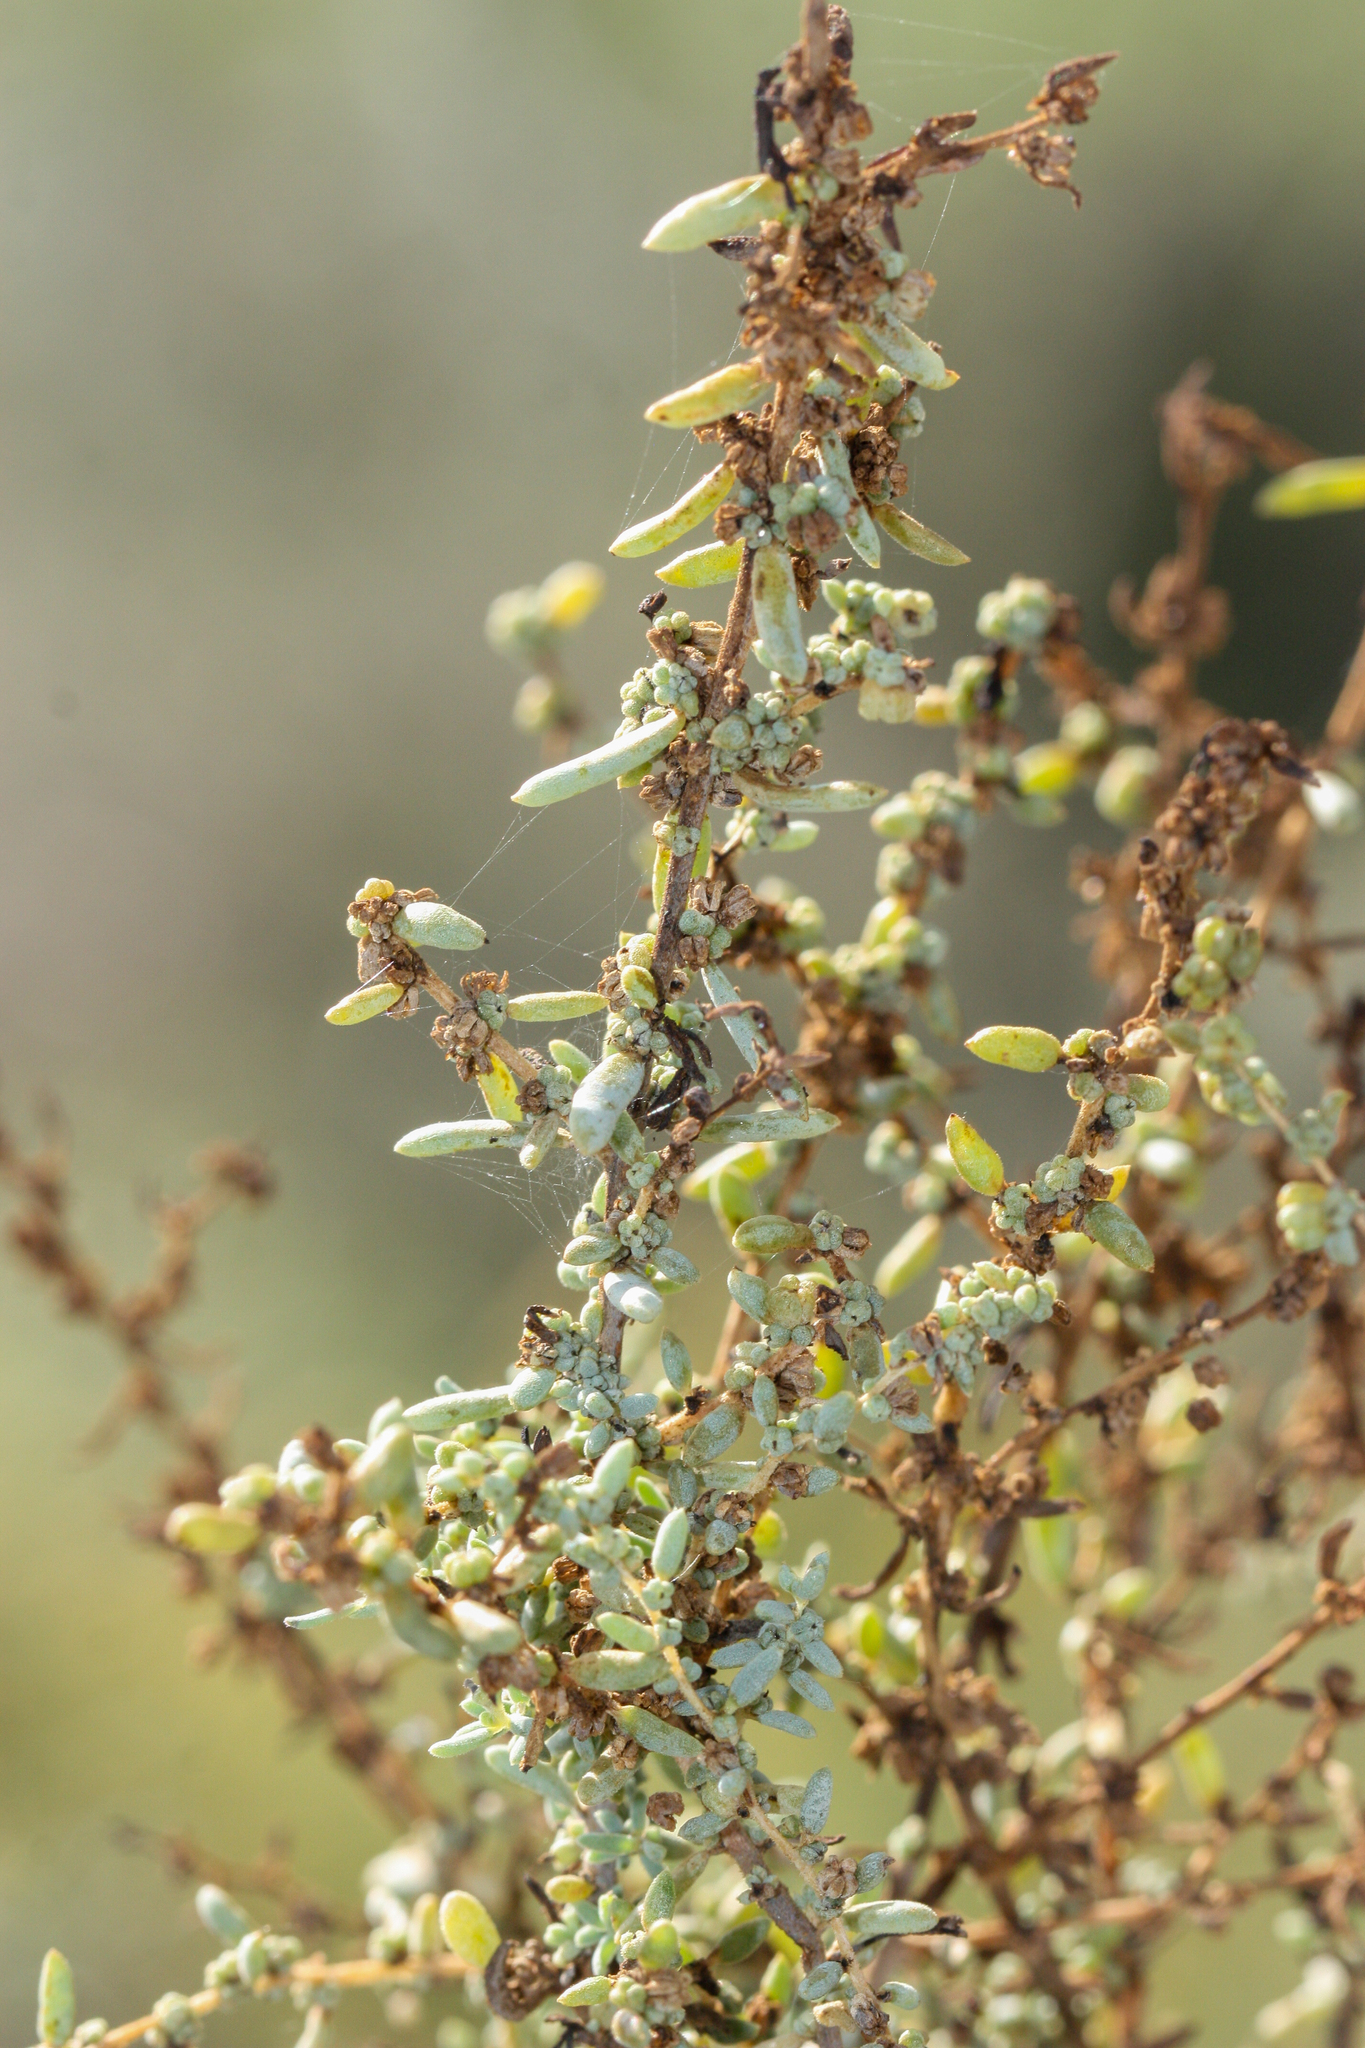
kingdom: Plantae
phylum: Tracheophyta
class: Magnoliopsida
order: Caryophyllales
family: Amaranthaceae
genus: Suaeda
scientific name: Suaeda nigra
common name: Bush seepweed
